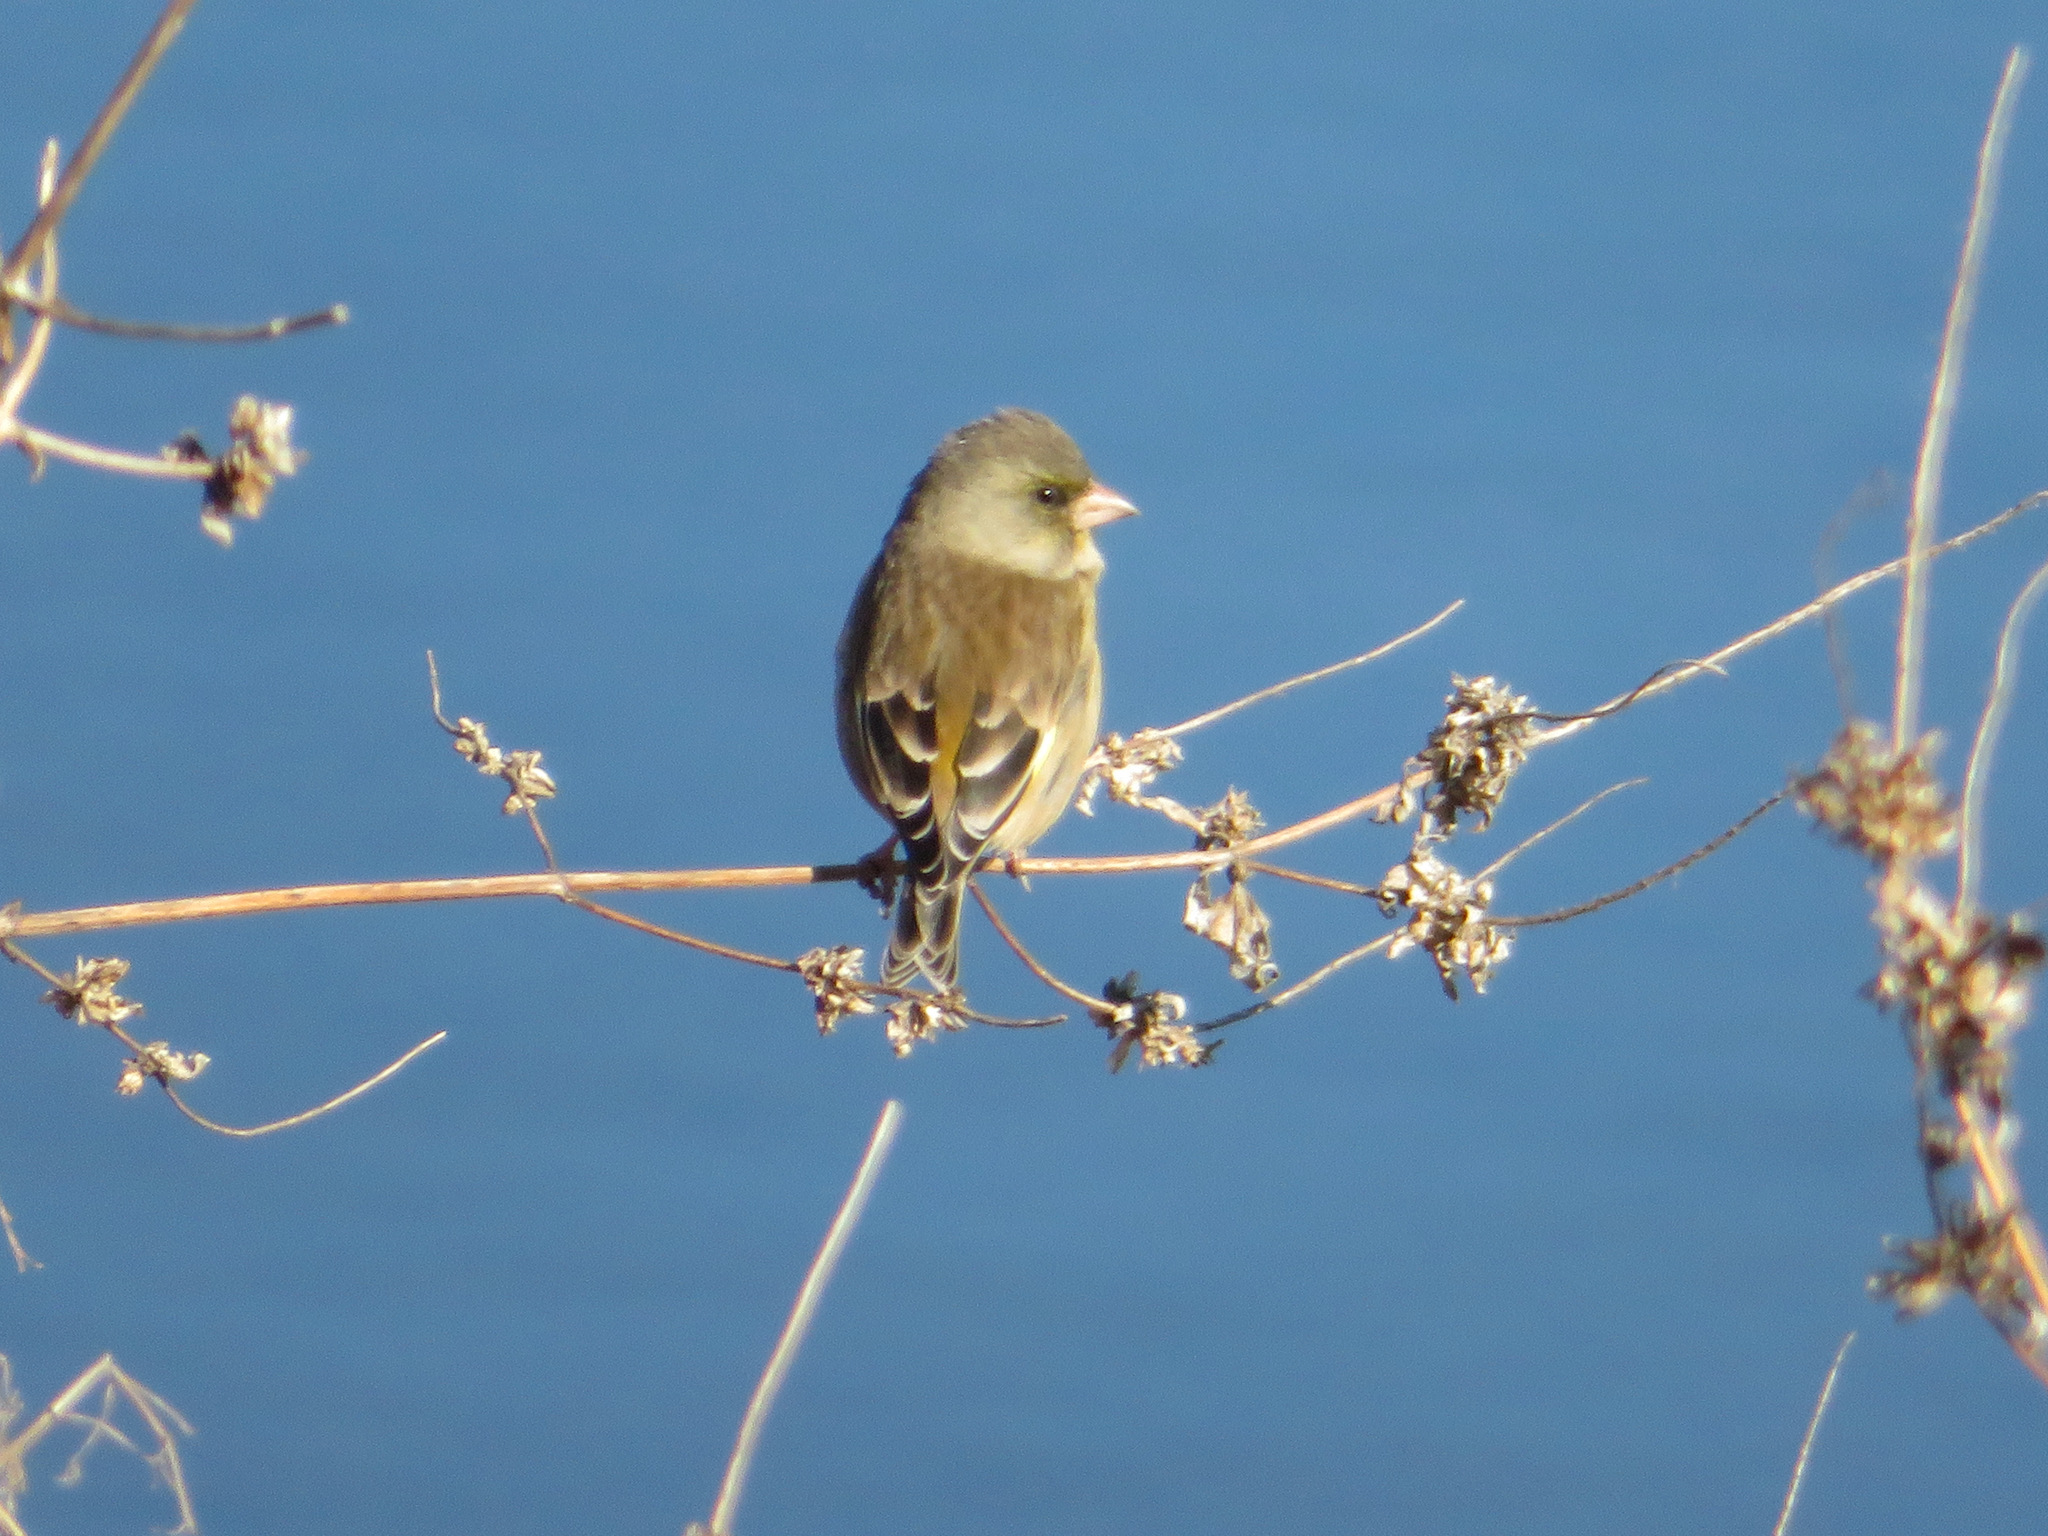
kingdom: Plantae
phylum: Tracheophyta
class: Liliopsida
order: Poales
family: Poaceae
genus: Chloris
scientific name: Chloris sinica
